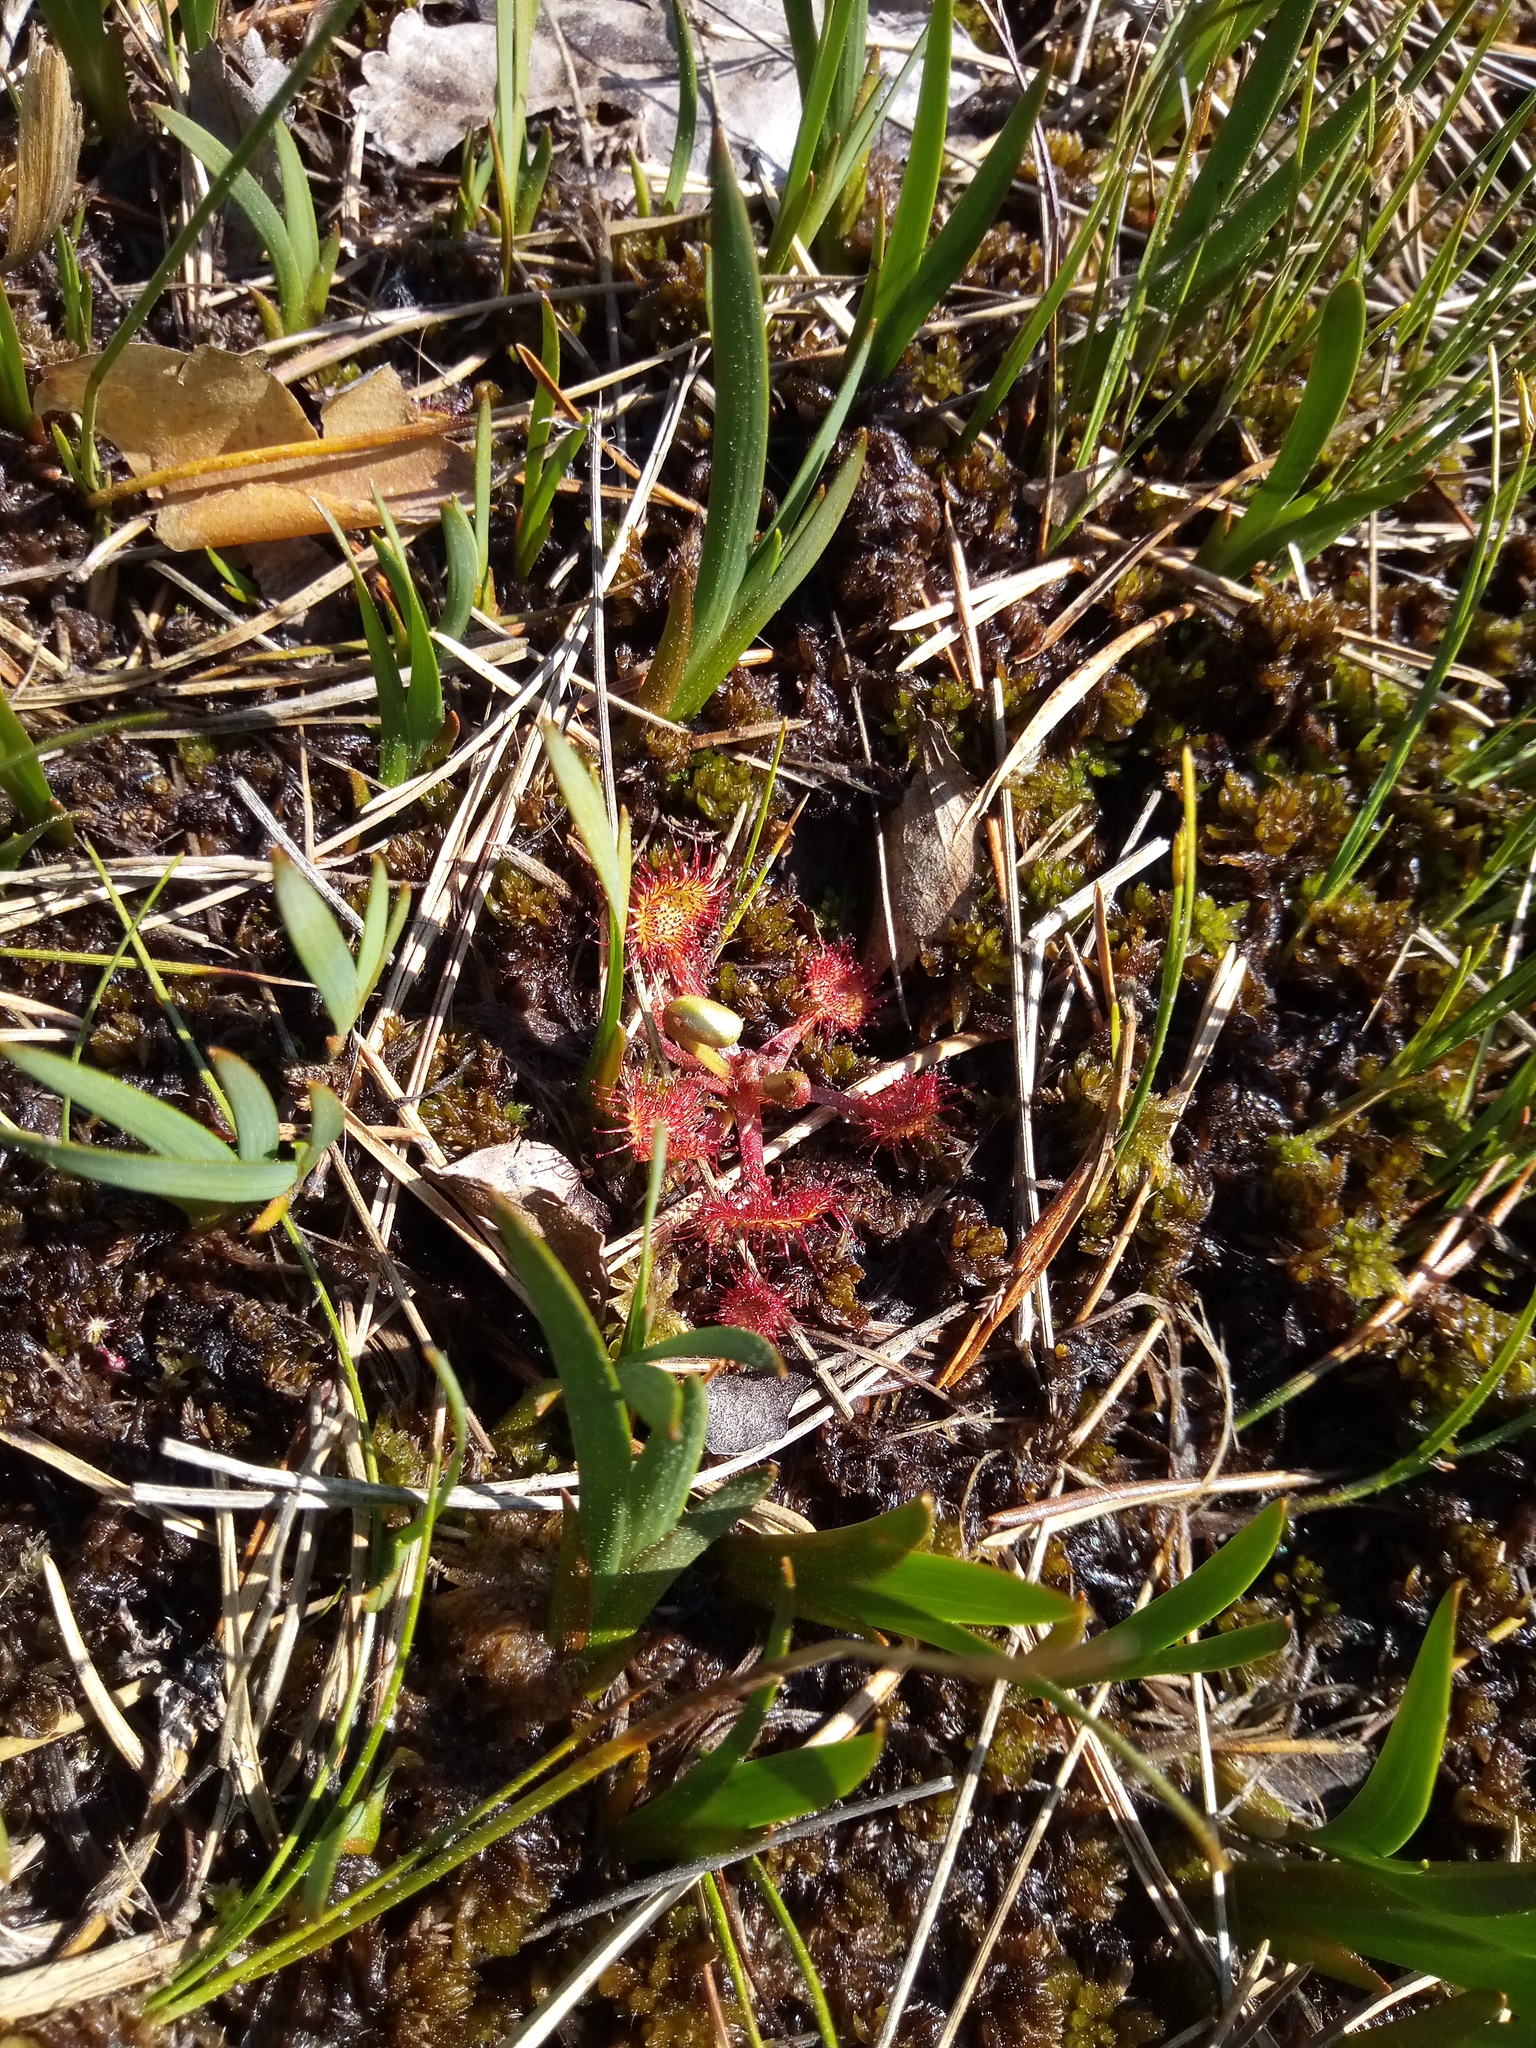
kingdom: Plantae
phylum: Tracheophyta
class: Magnoliopsida
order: Caryophyllales
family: Droseraceae
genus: Drosera
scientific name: Drosera rotundifolia
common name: Round-leaved sundew
